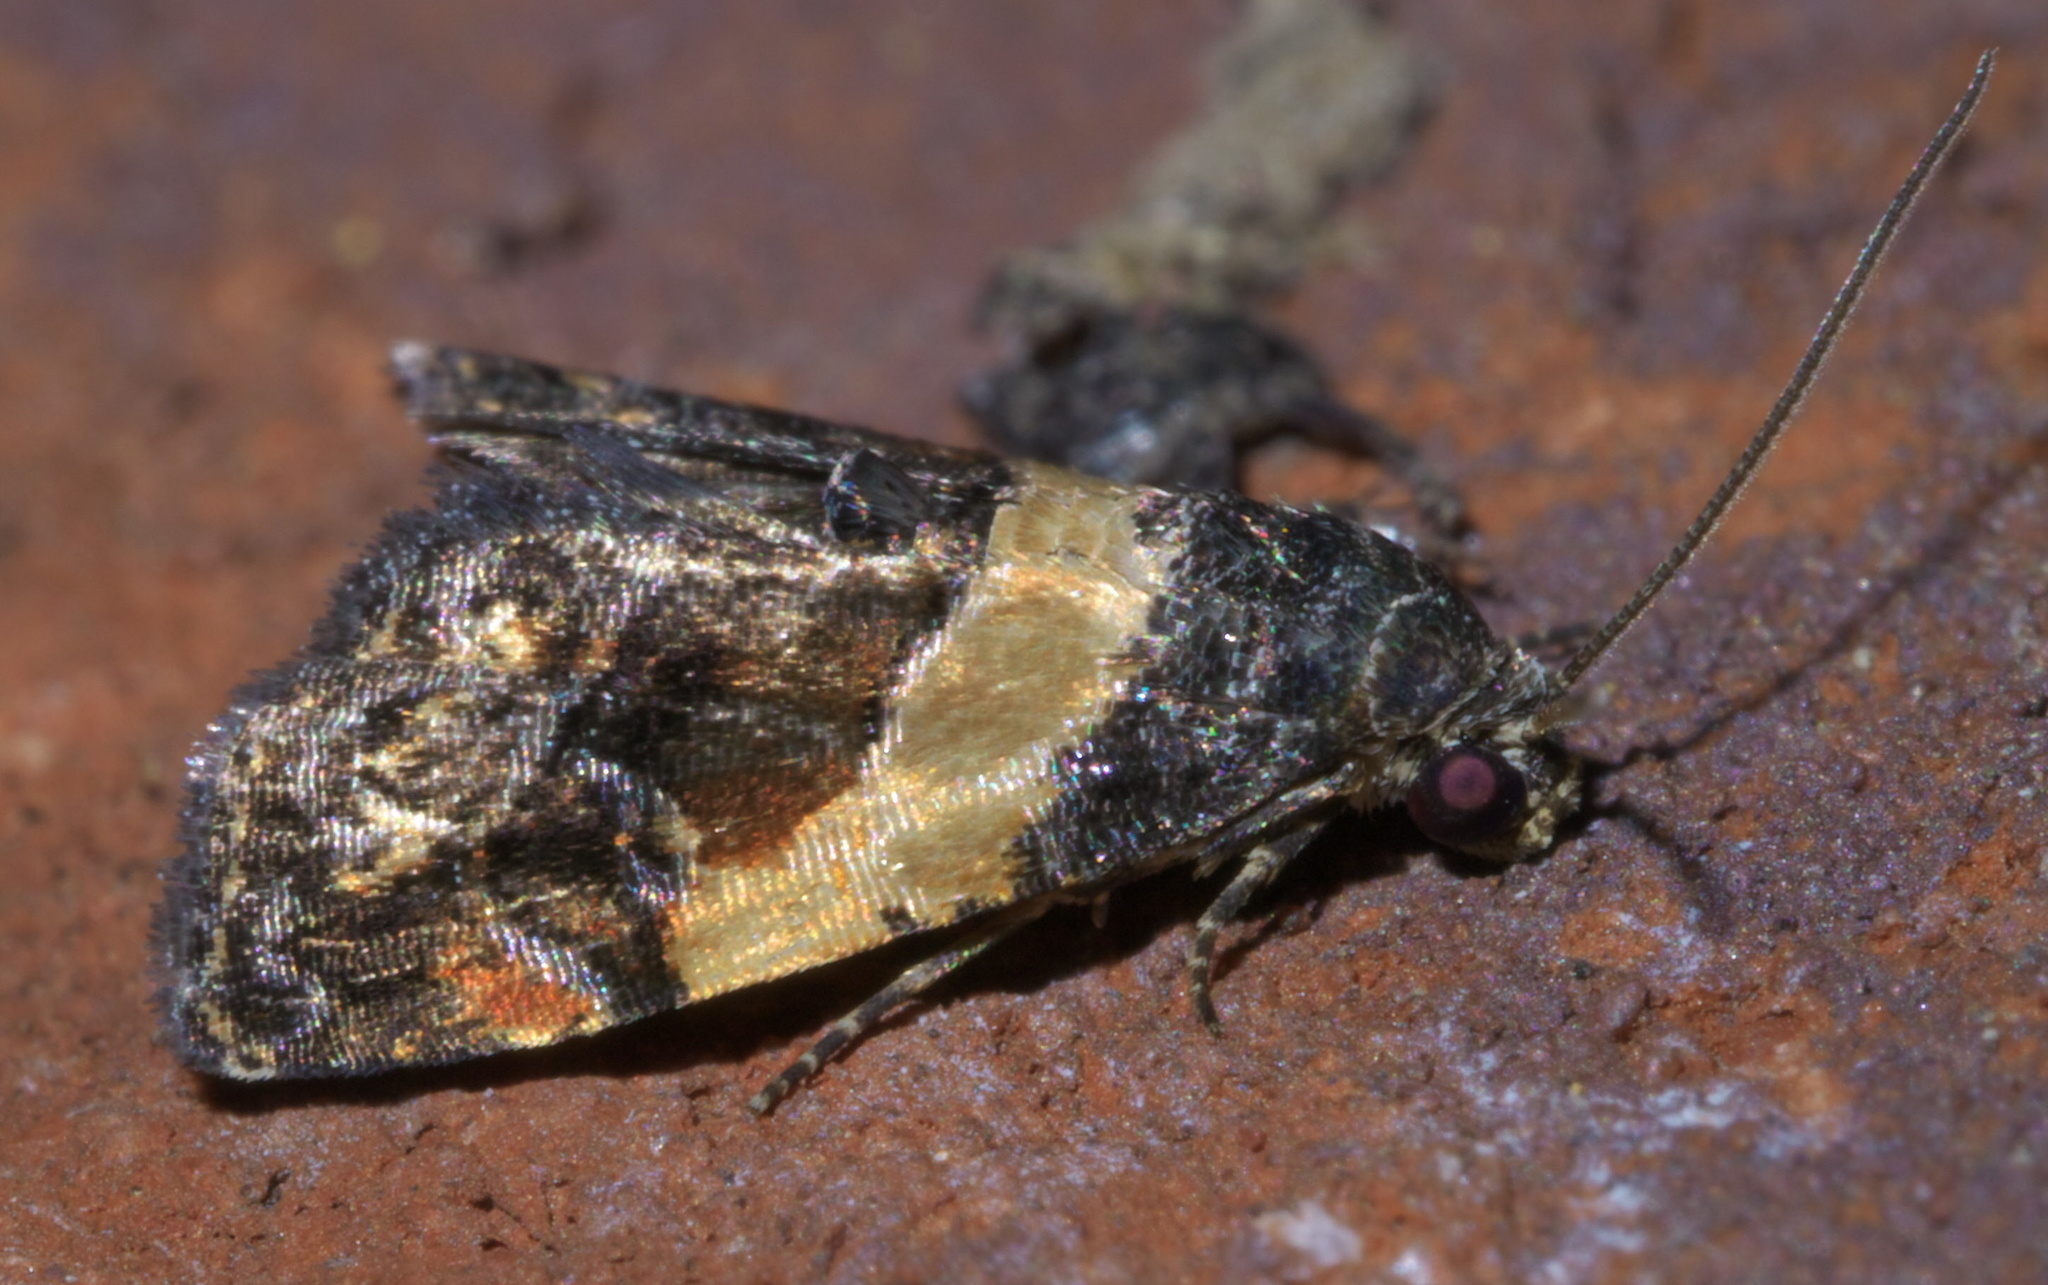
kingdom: Animalia
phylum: Arthropoda
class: Insecta
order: Lepidoptera
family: Noctuidae
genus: Tripudia
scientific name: Tripudia balteata
